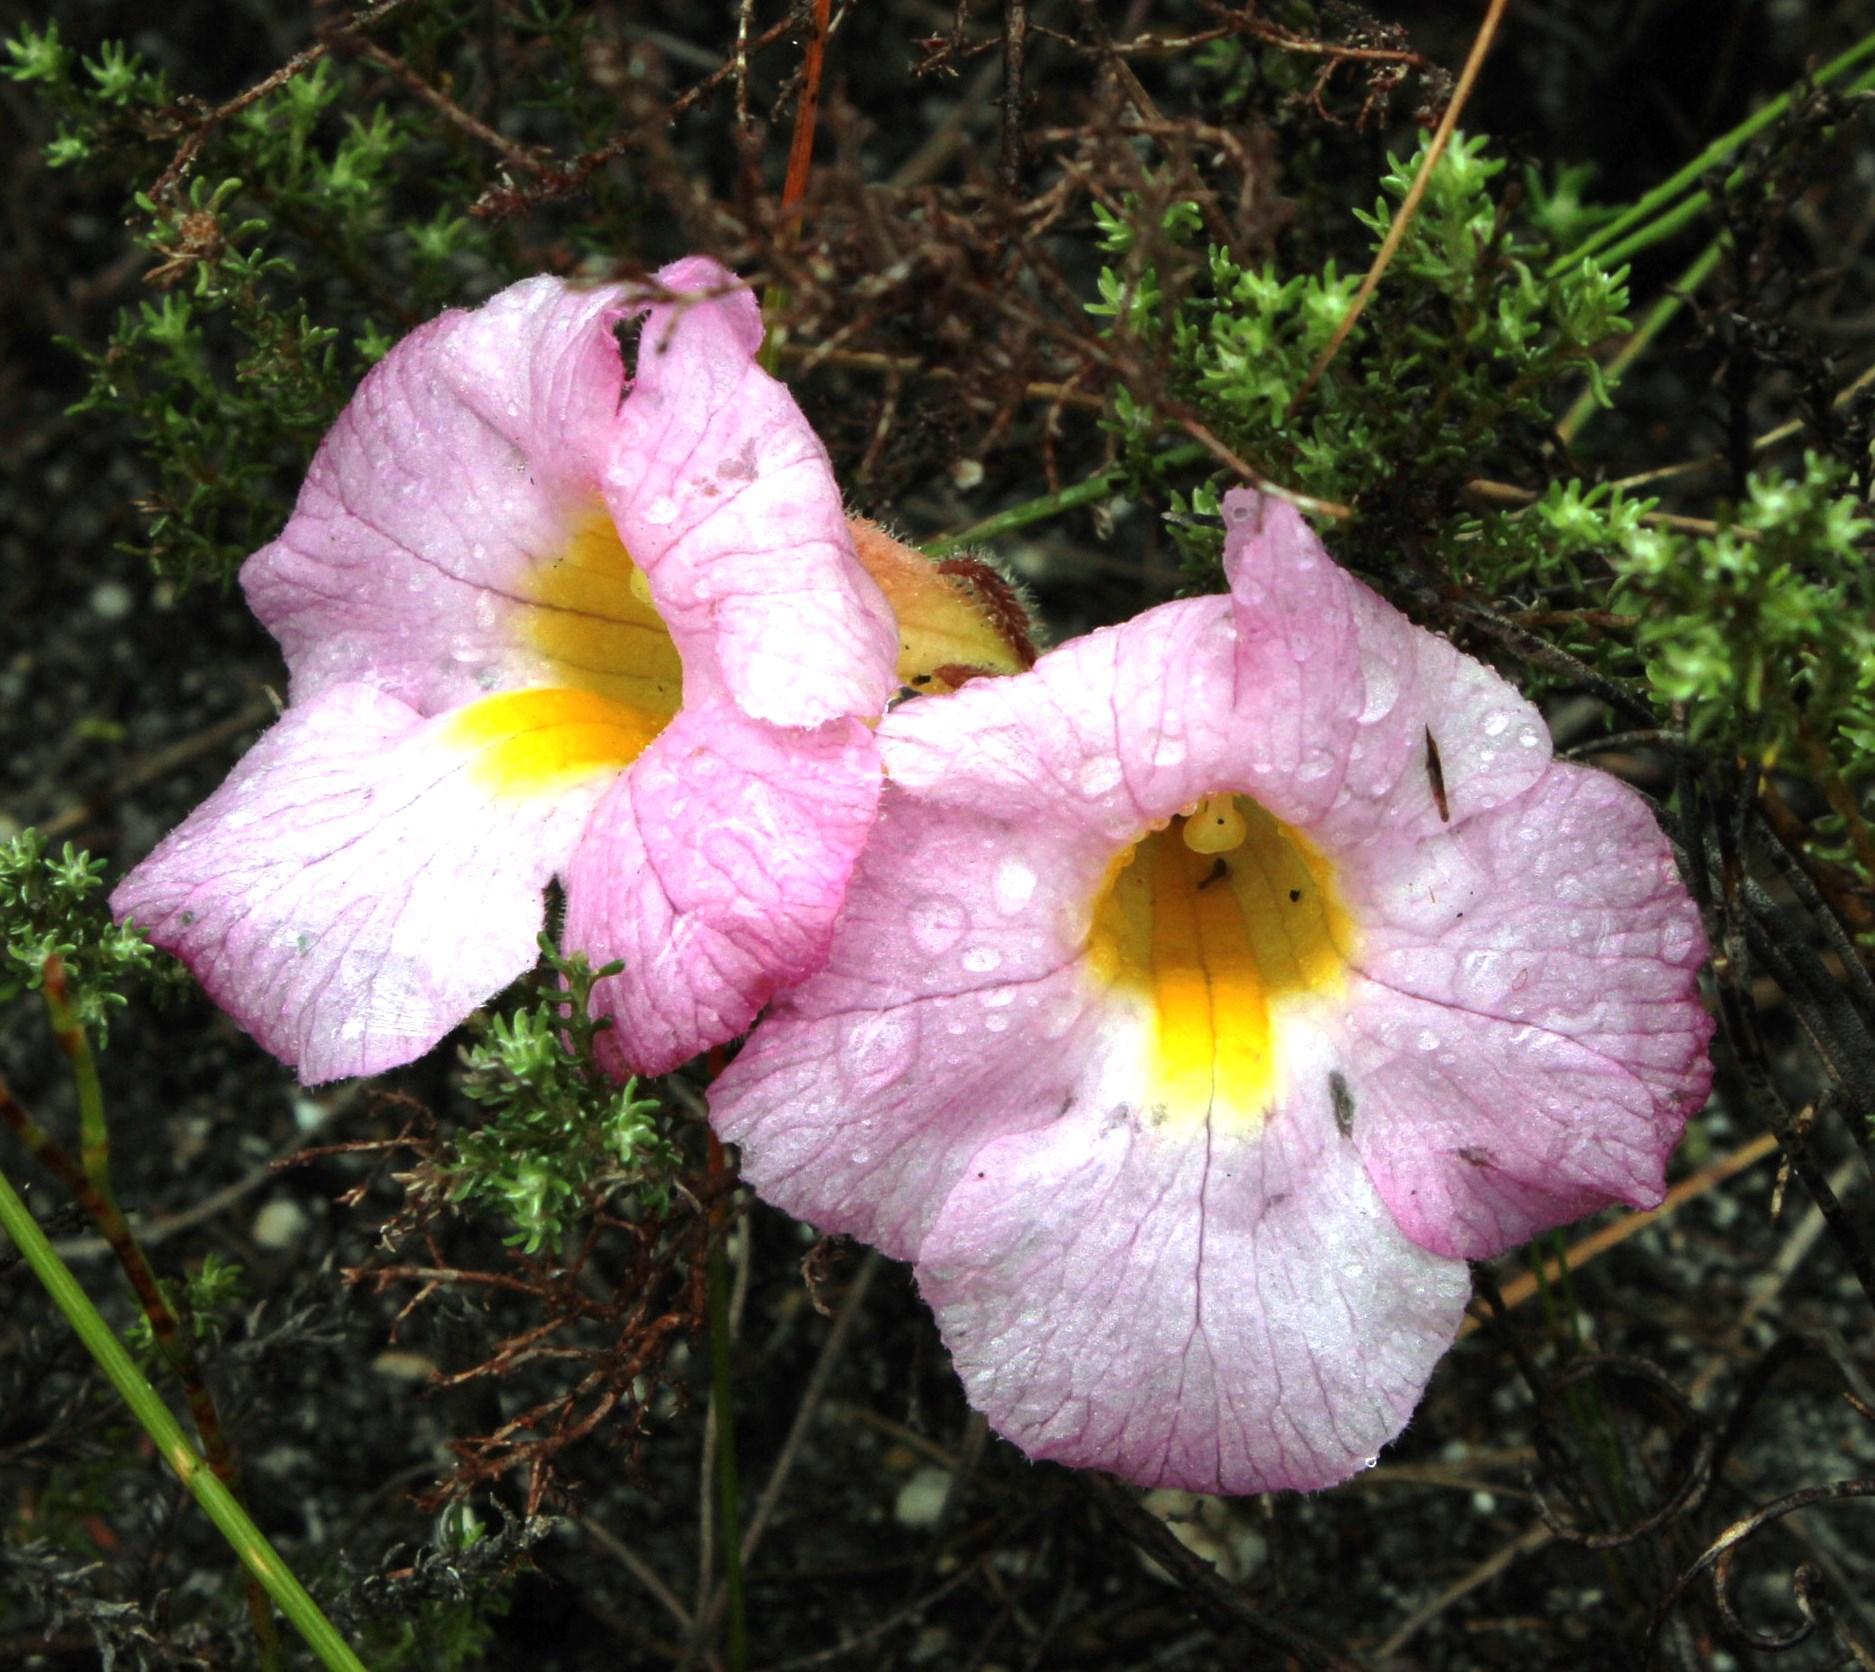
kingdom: Plantae
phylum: Tracheophyta
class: Magnoliopsida
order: Lamiales
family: Orobanchaceae
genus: Harveya
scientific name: Harveya purpurea
